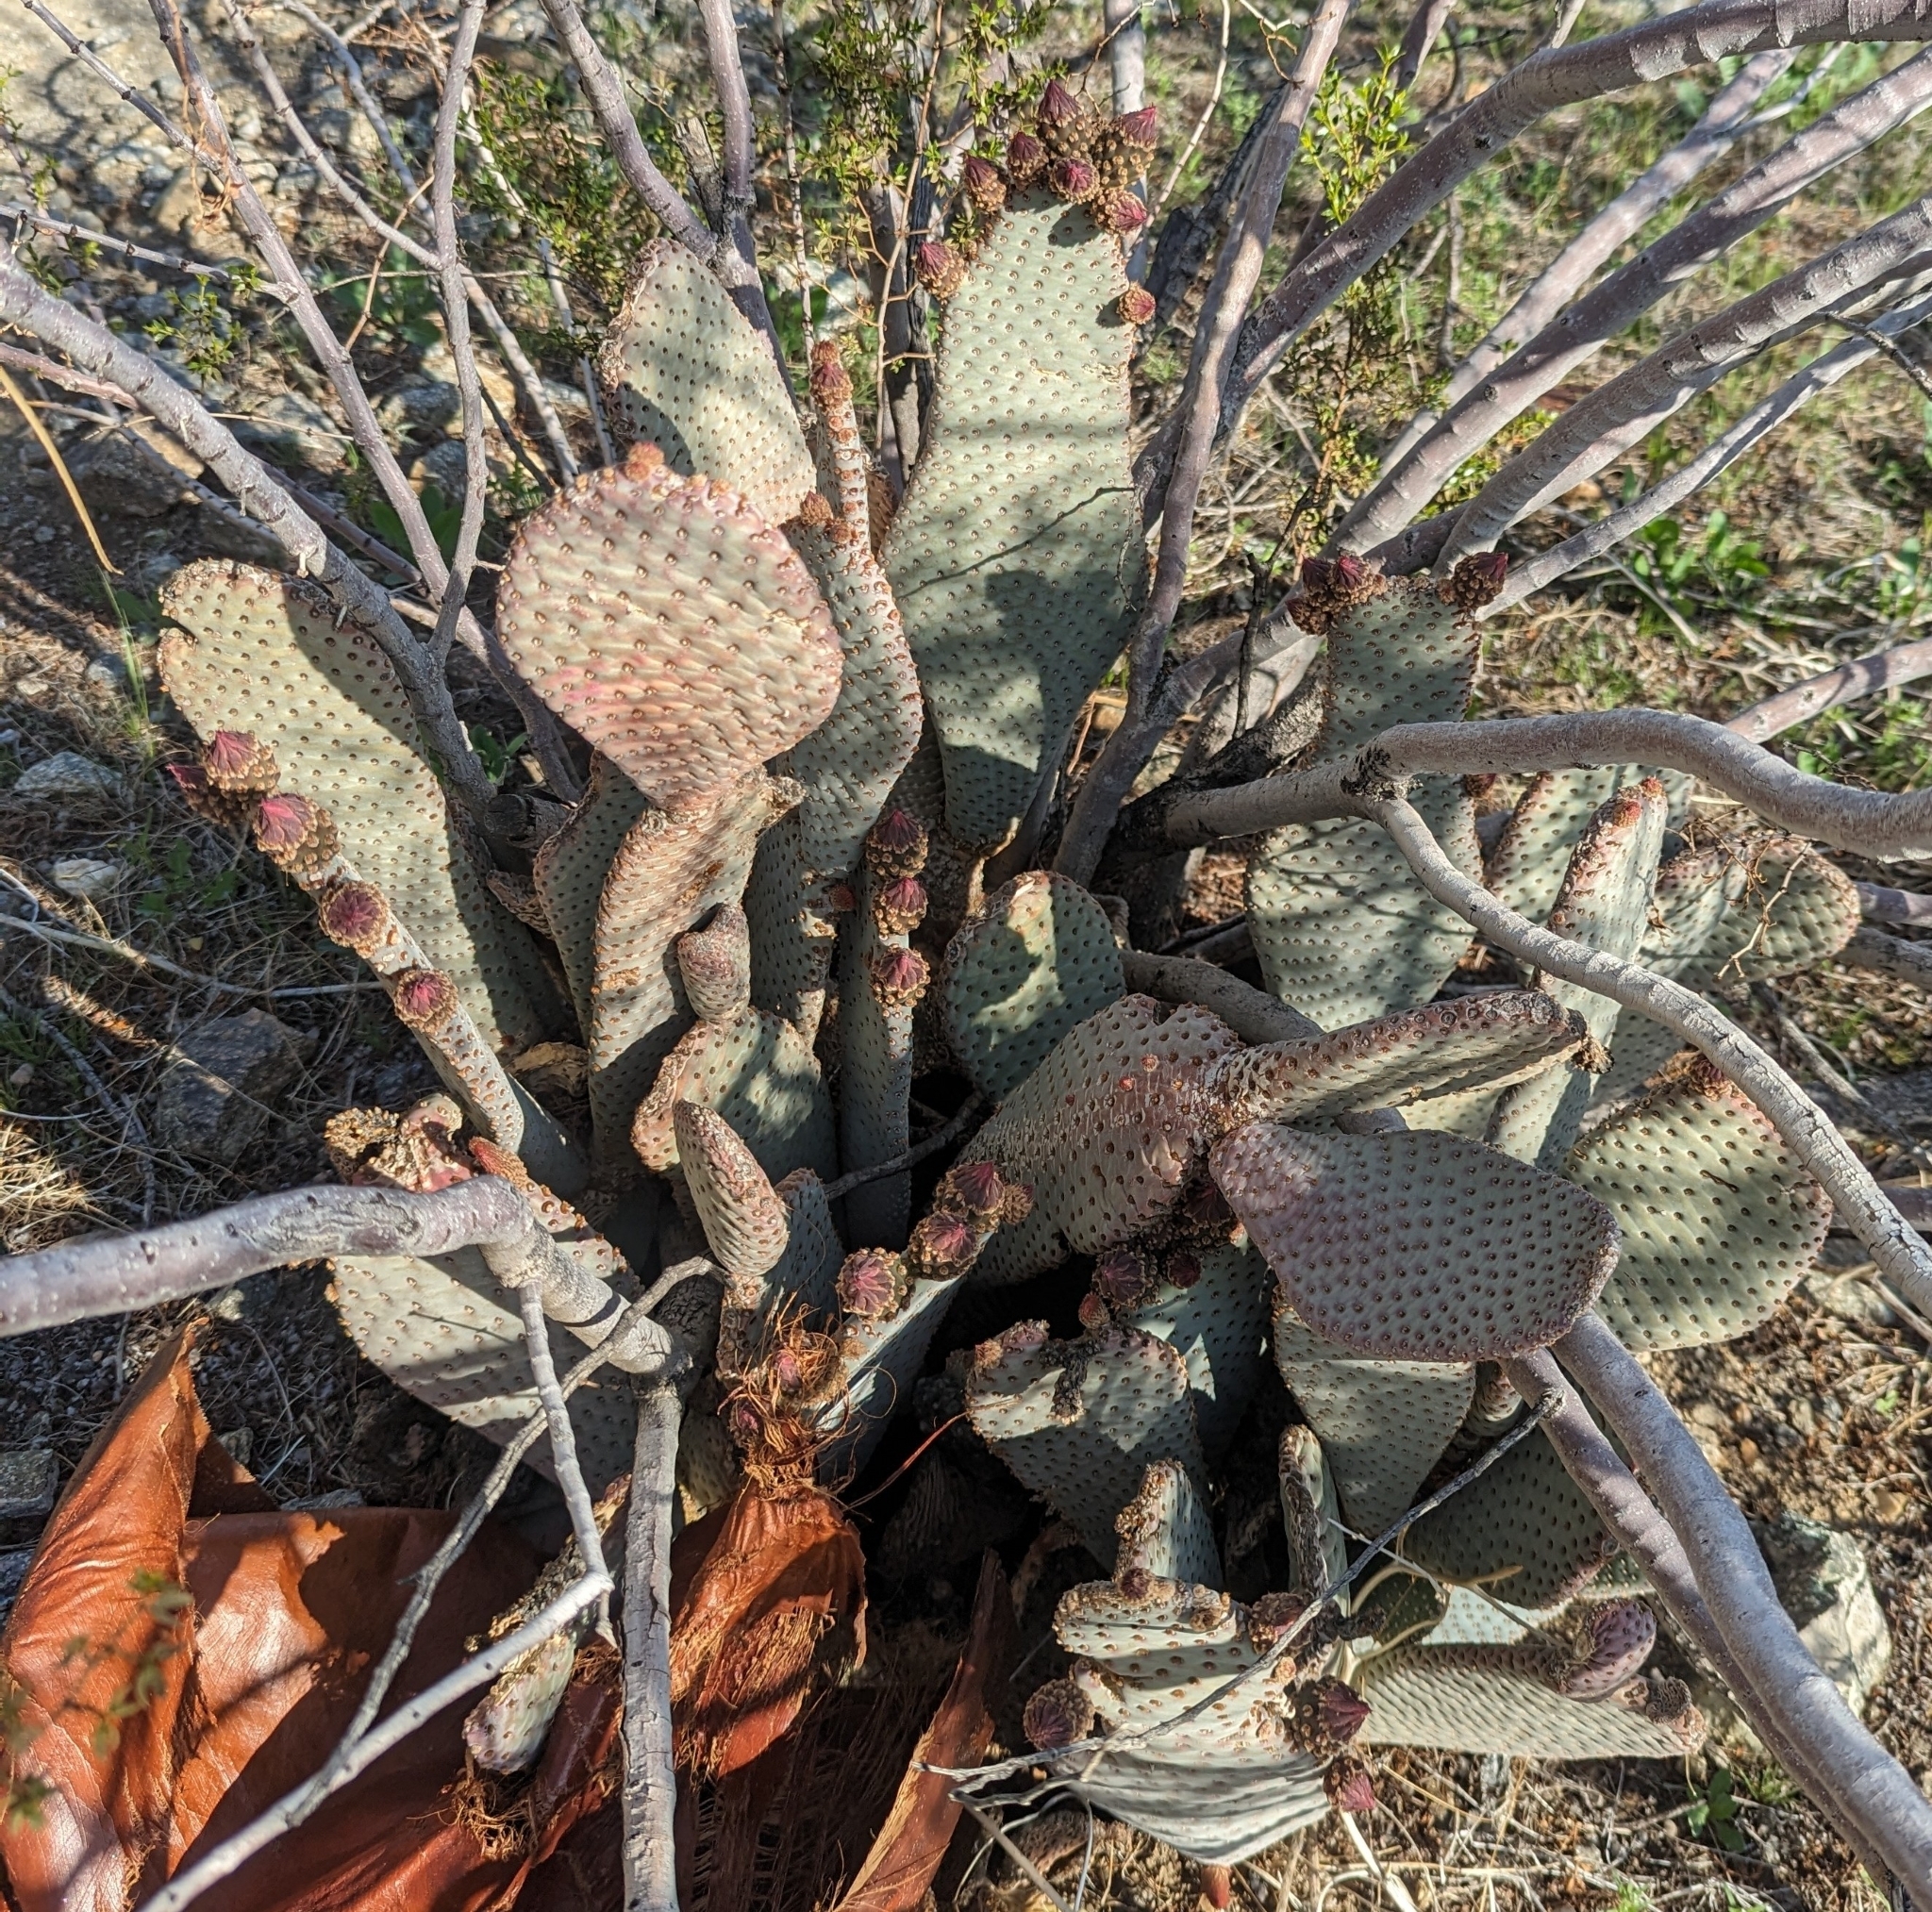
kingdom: Plantae
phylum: Tracheophyta
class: Magnoliopsida
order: Caryophyllales
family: Cactaceae
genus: Opuntia
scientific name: Opuntia basilaris
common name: Beavertail prickly-pear
